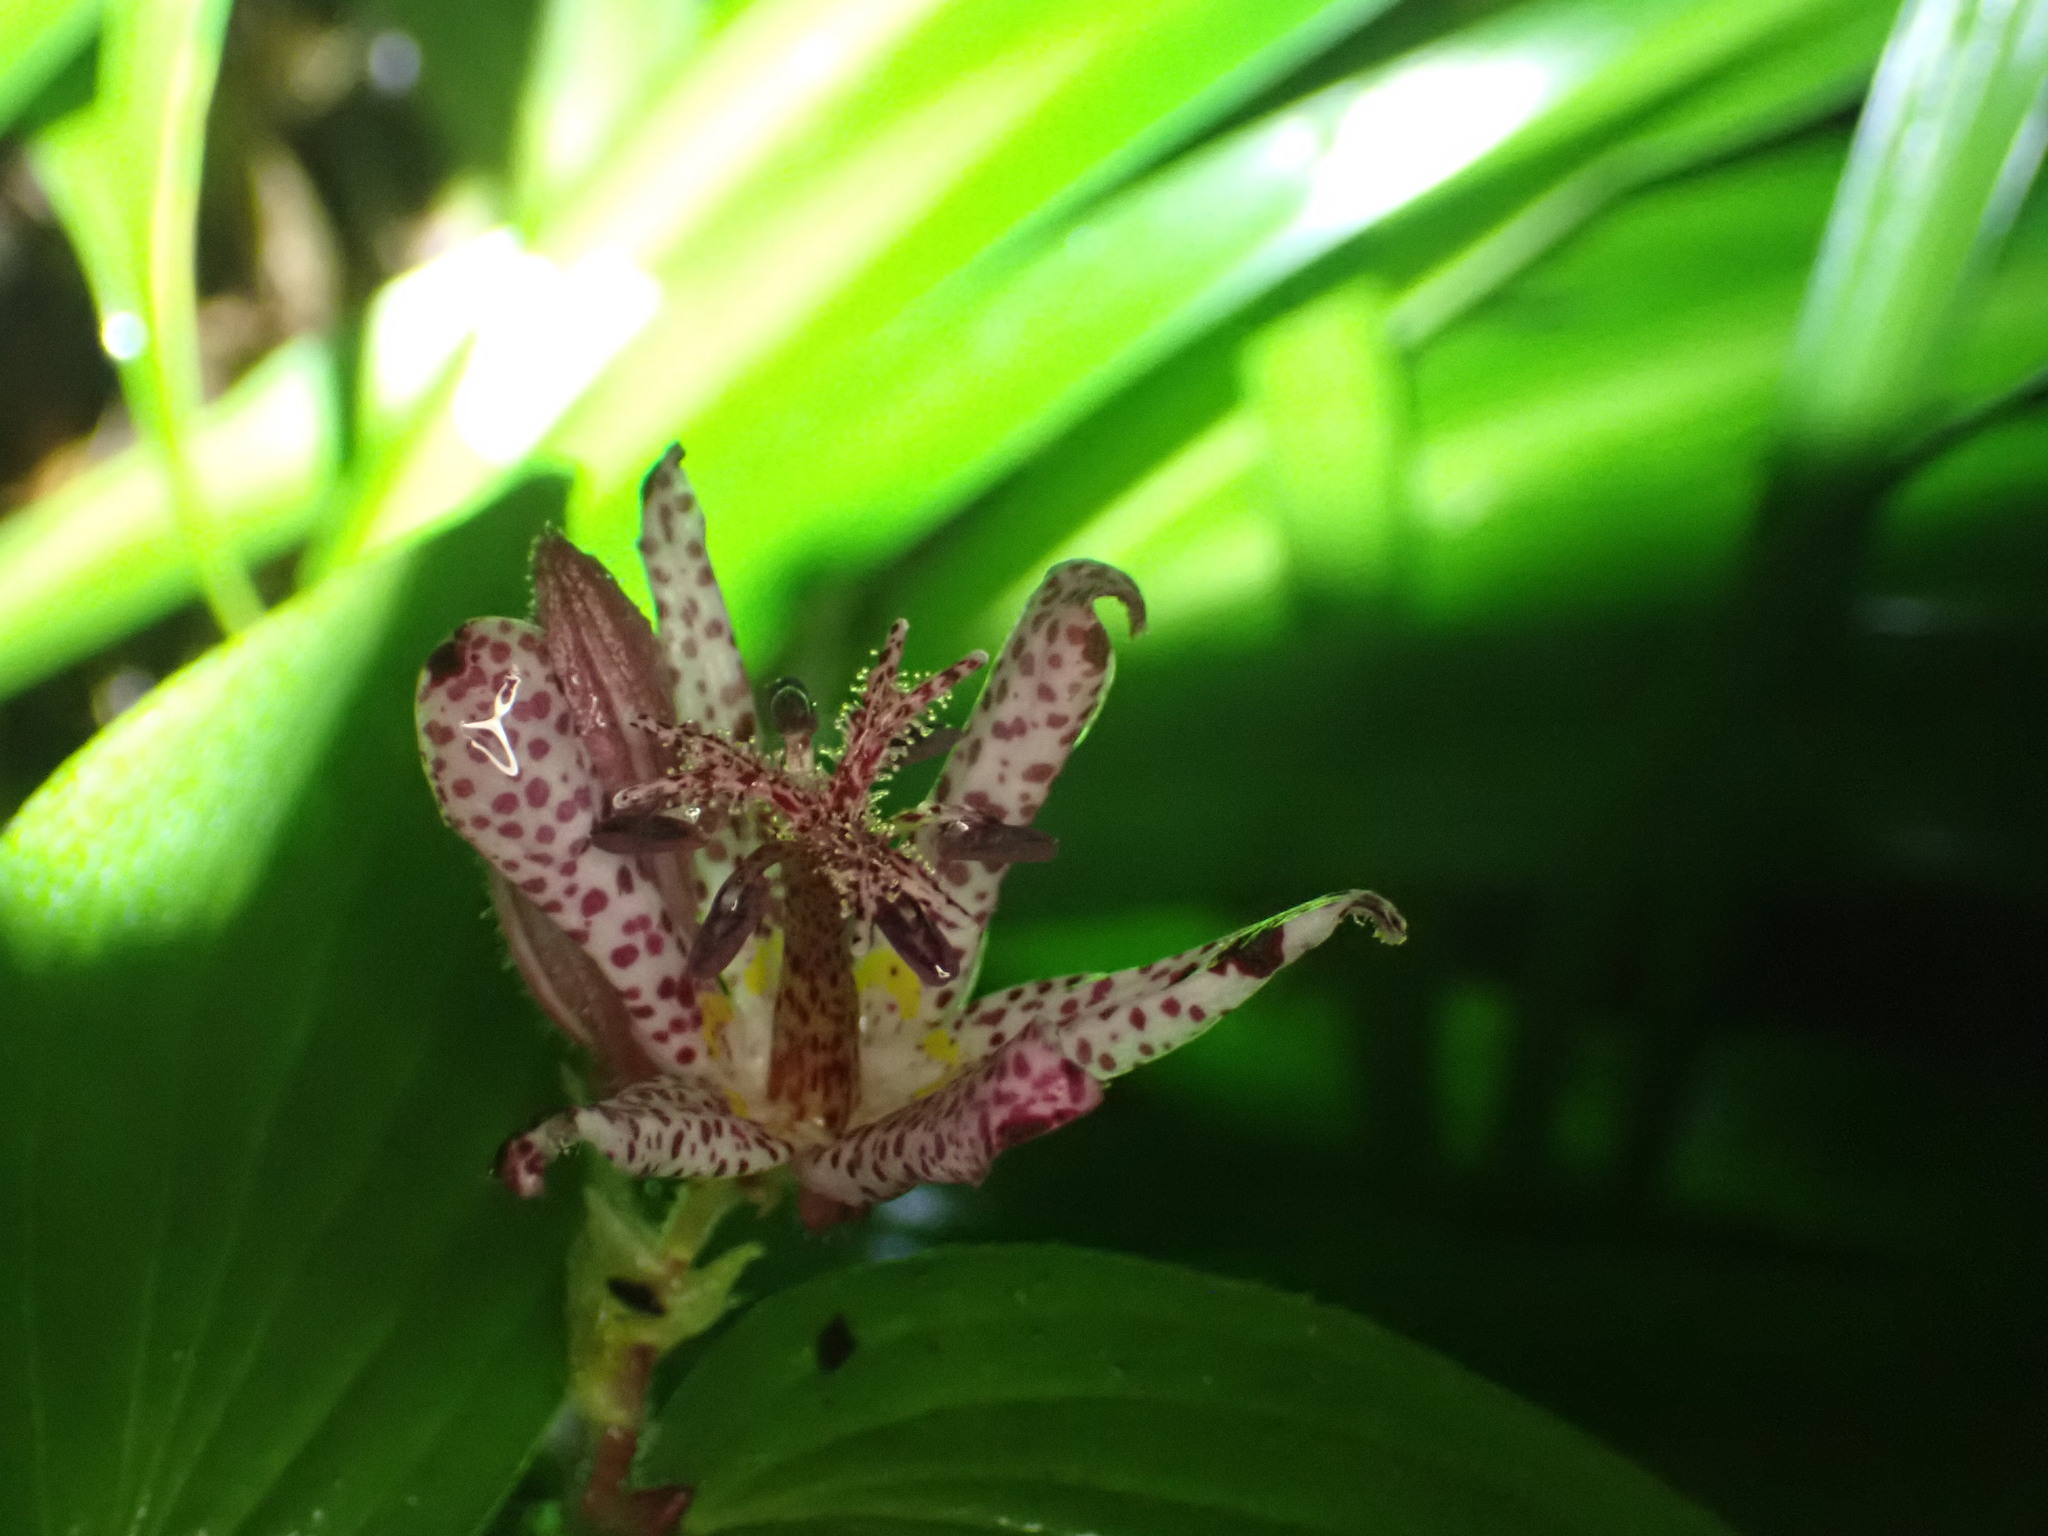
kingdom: Plantae
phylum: Tracheophyta
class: Liliopsida
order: Liliales
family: Liliaceae
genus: Tricyrtis
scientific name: Tricyrtis formosana
